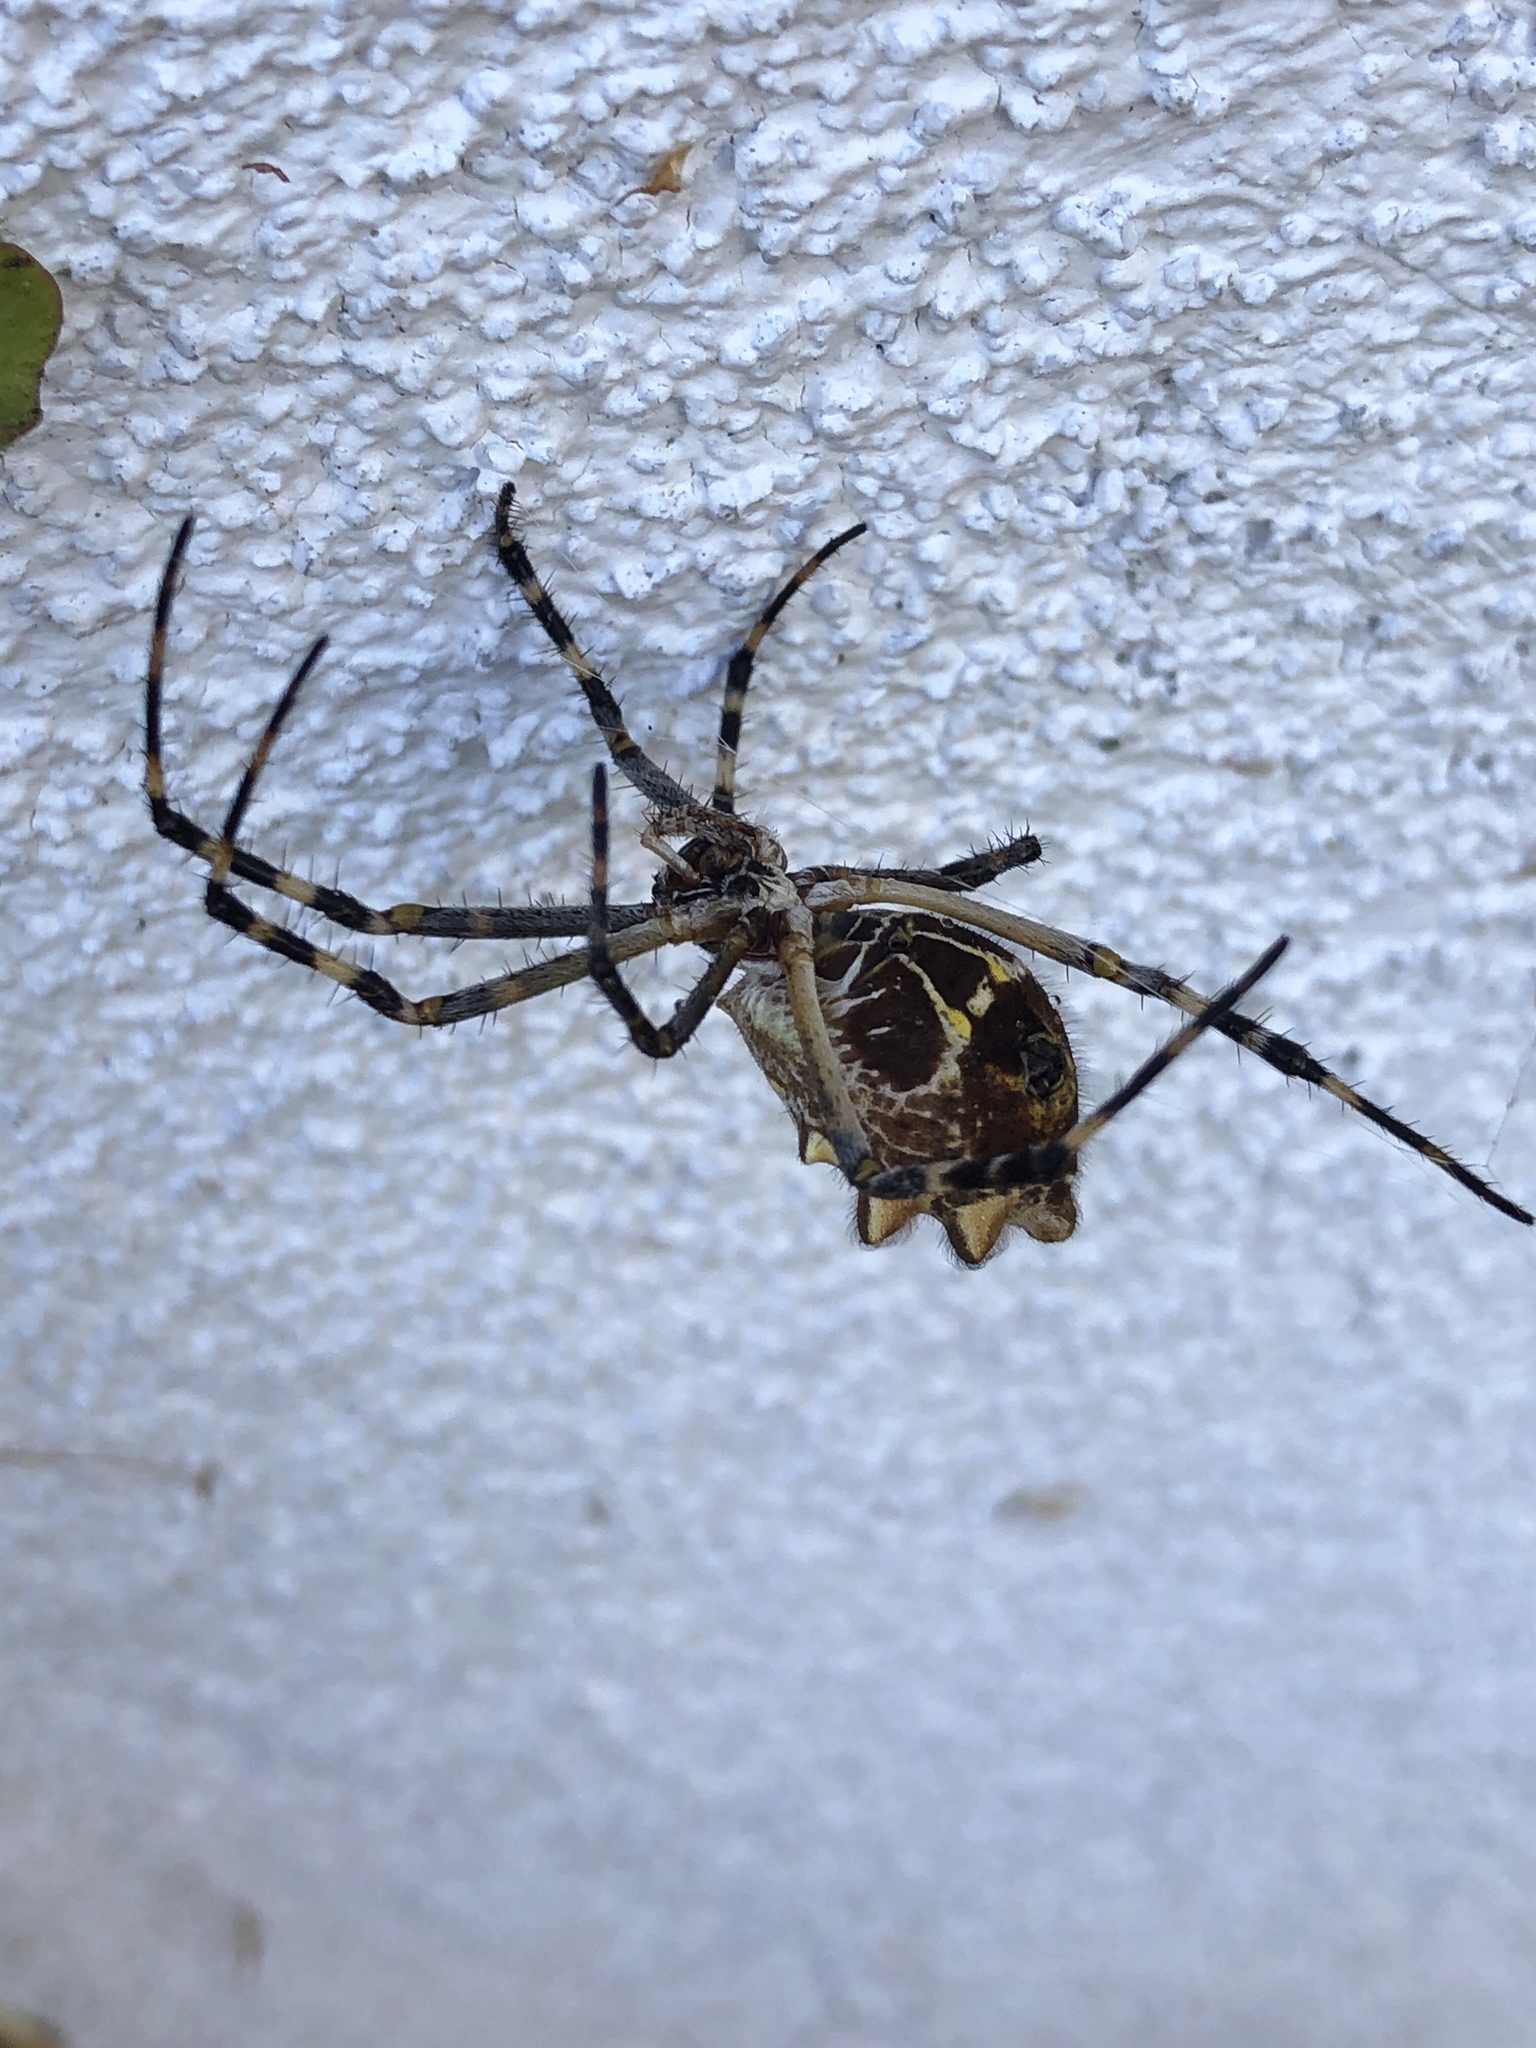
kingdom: Animalia
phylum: Arthropoda
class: Arachnida
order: Araneae
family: Araneidae
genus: Argiope
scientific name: Argiope argentata
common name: Orb weavers
